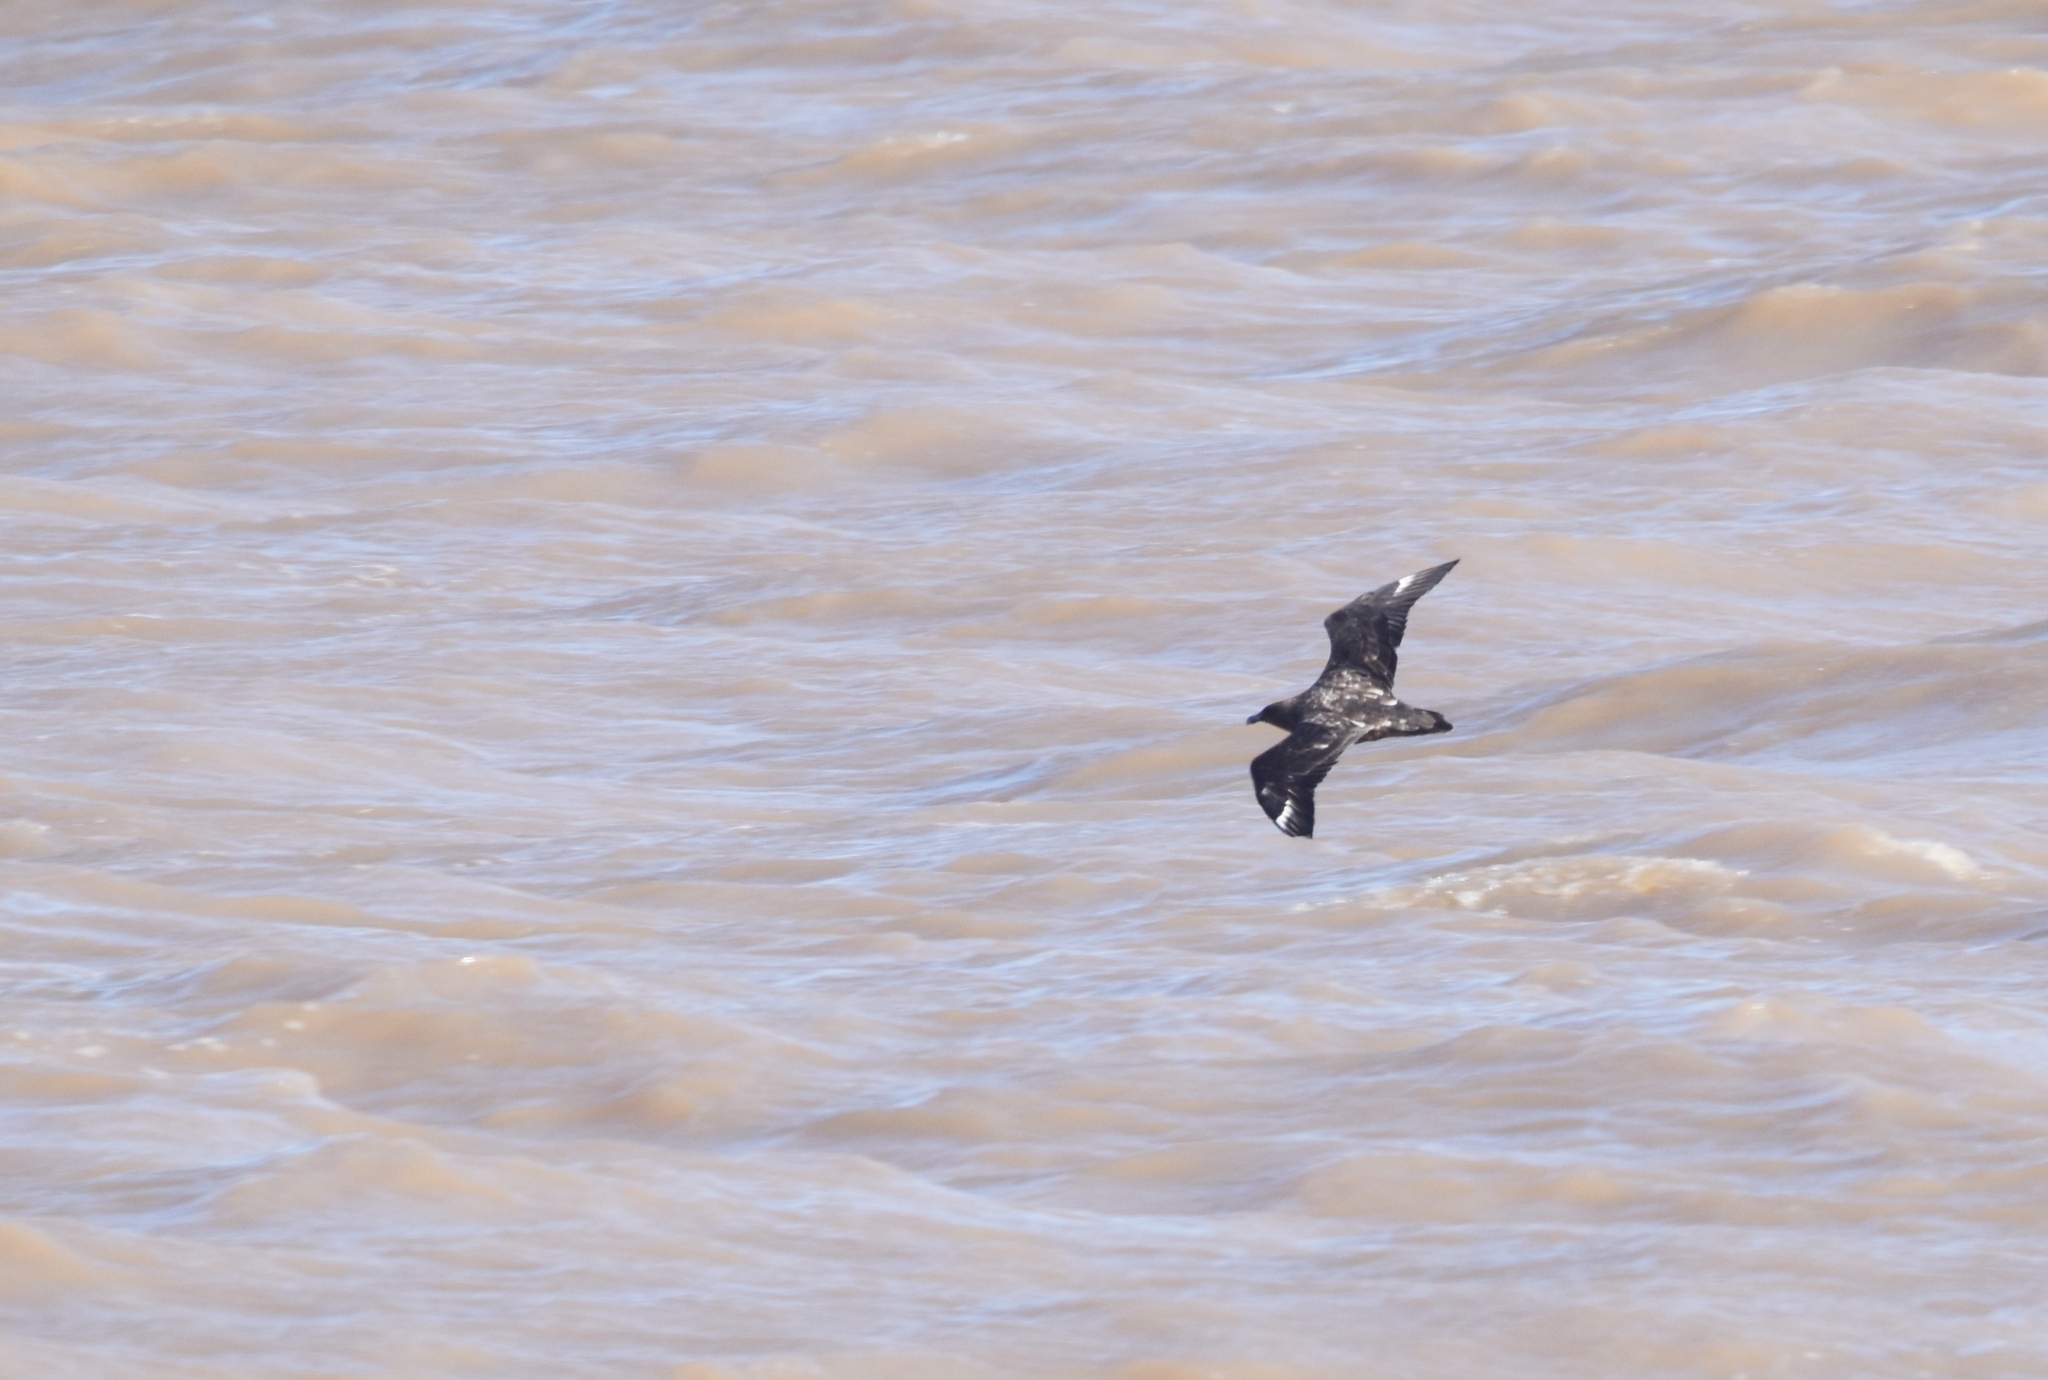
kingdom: Animalia
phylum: Chordata
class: Aves
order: Charadriiformes
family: Stercorariidae
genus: Stercorarius
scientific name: Stercorarius antarcticus
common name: Brown skua
